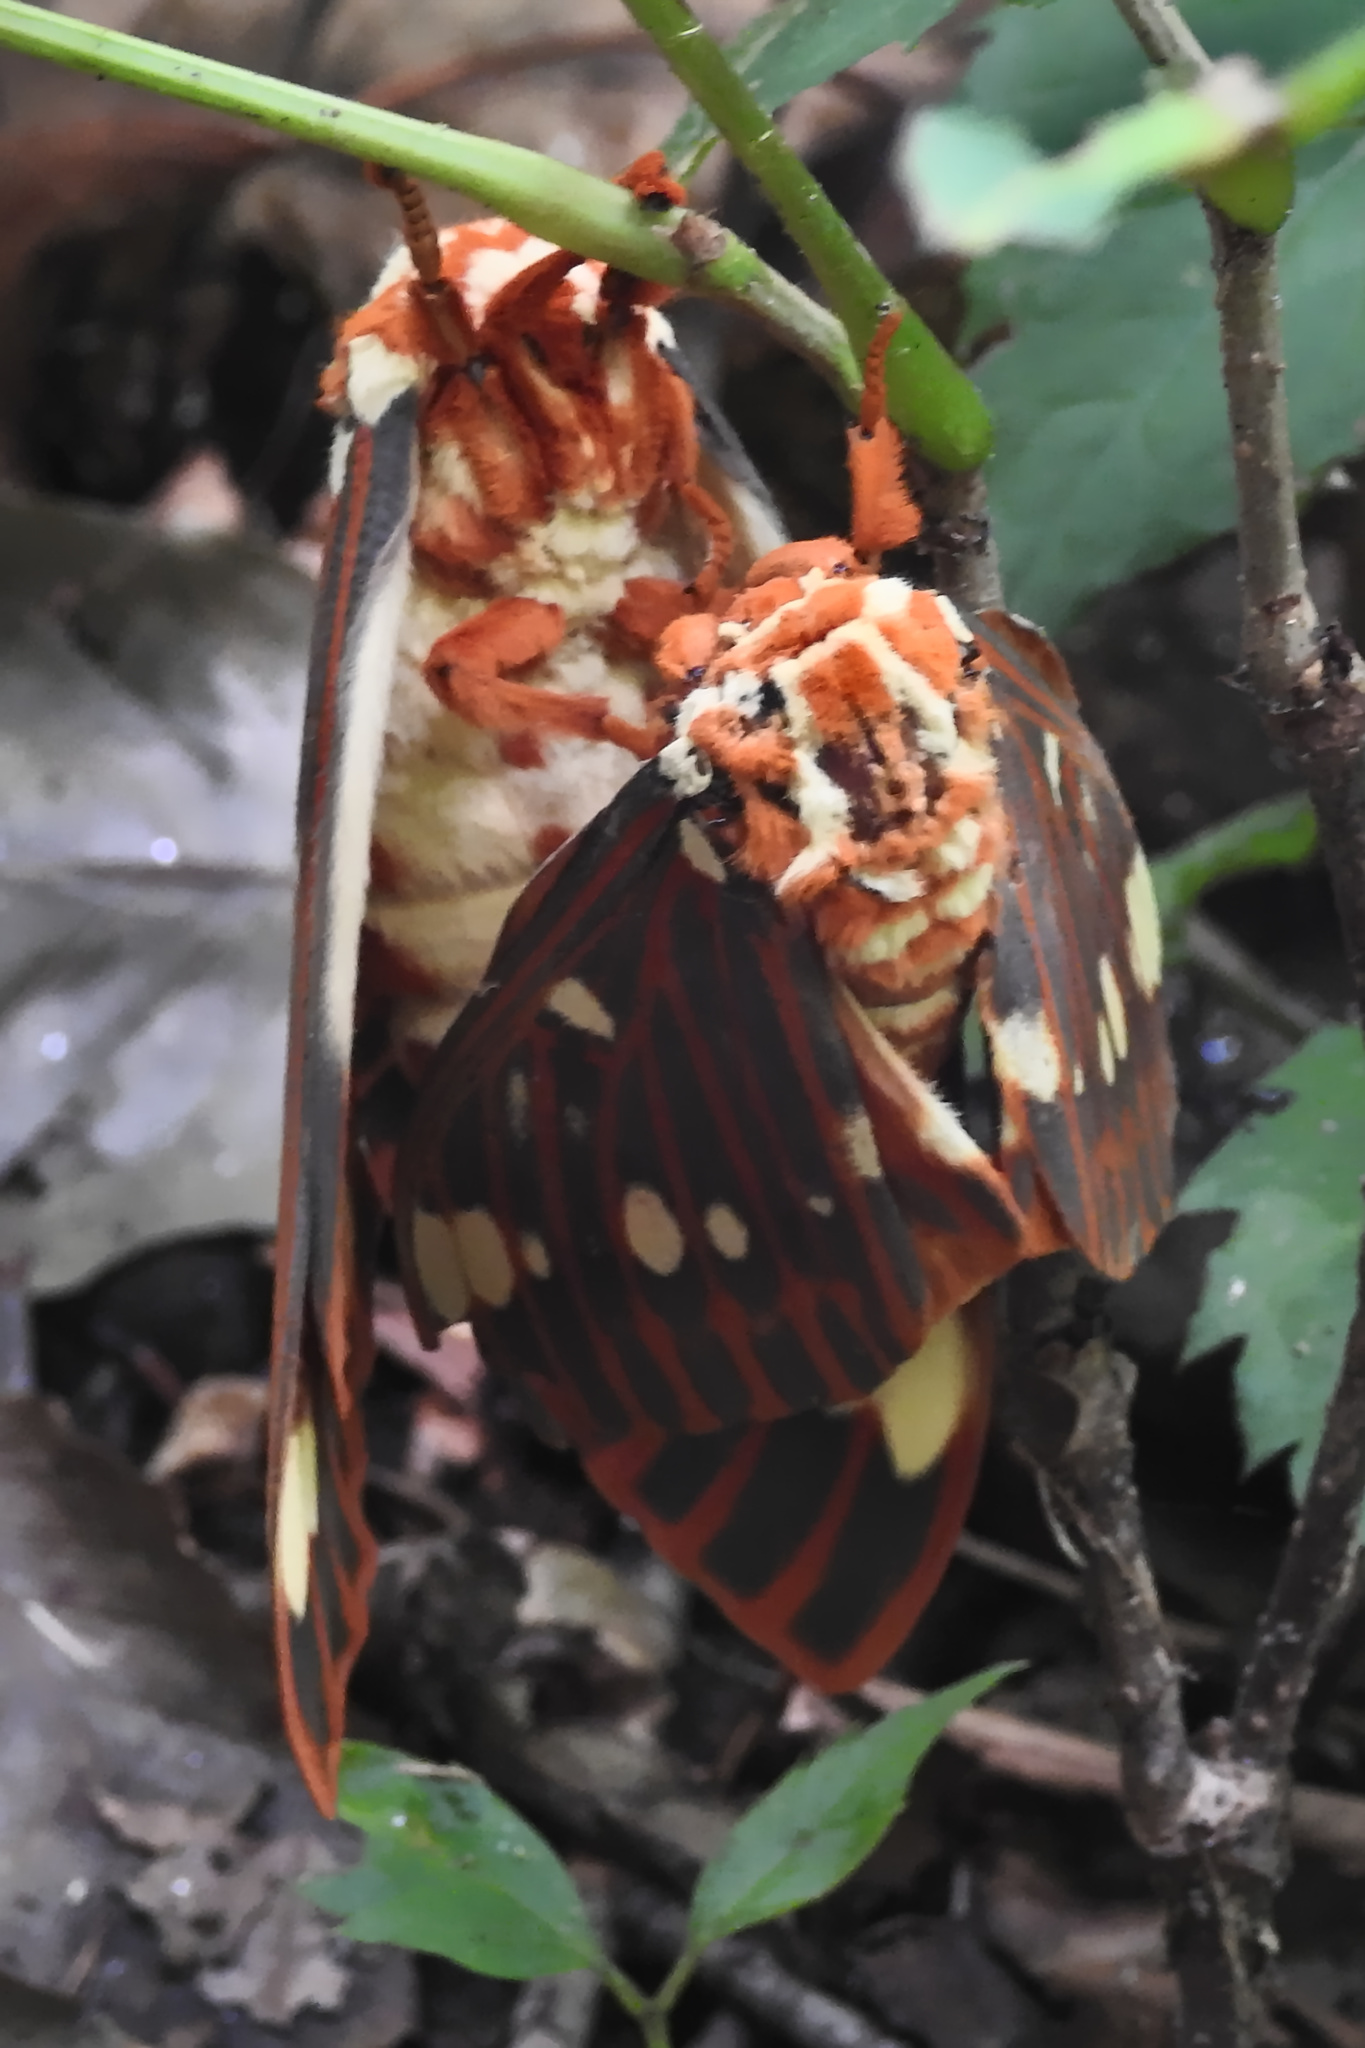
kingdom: Animalia
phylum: Arthropoda
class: Insecta
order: Lepidoptera
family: Saturniidae
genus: Citheronia
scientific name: Citheronia regalis
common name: Hickory horned devil
